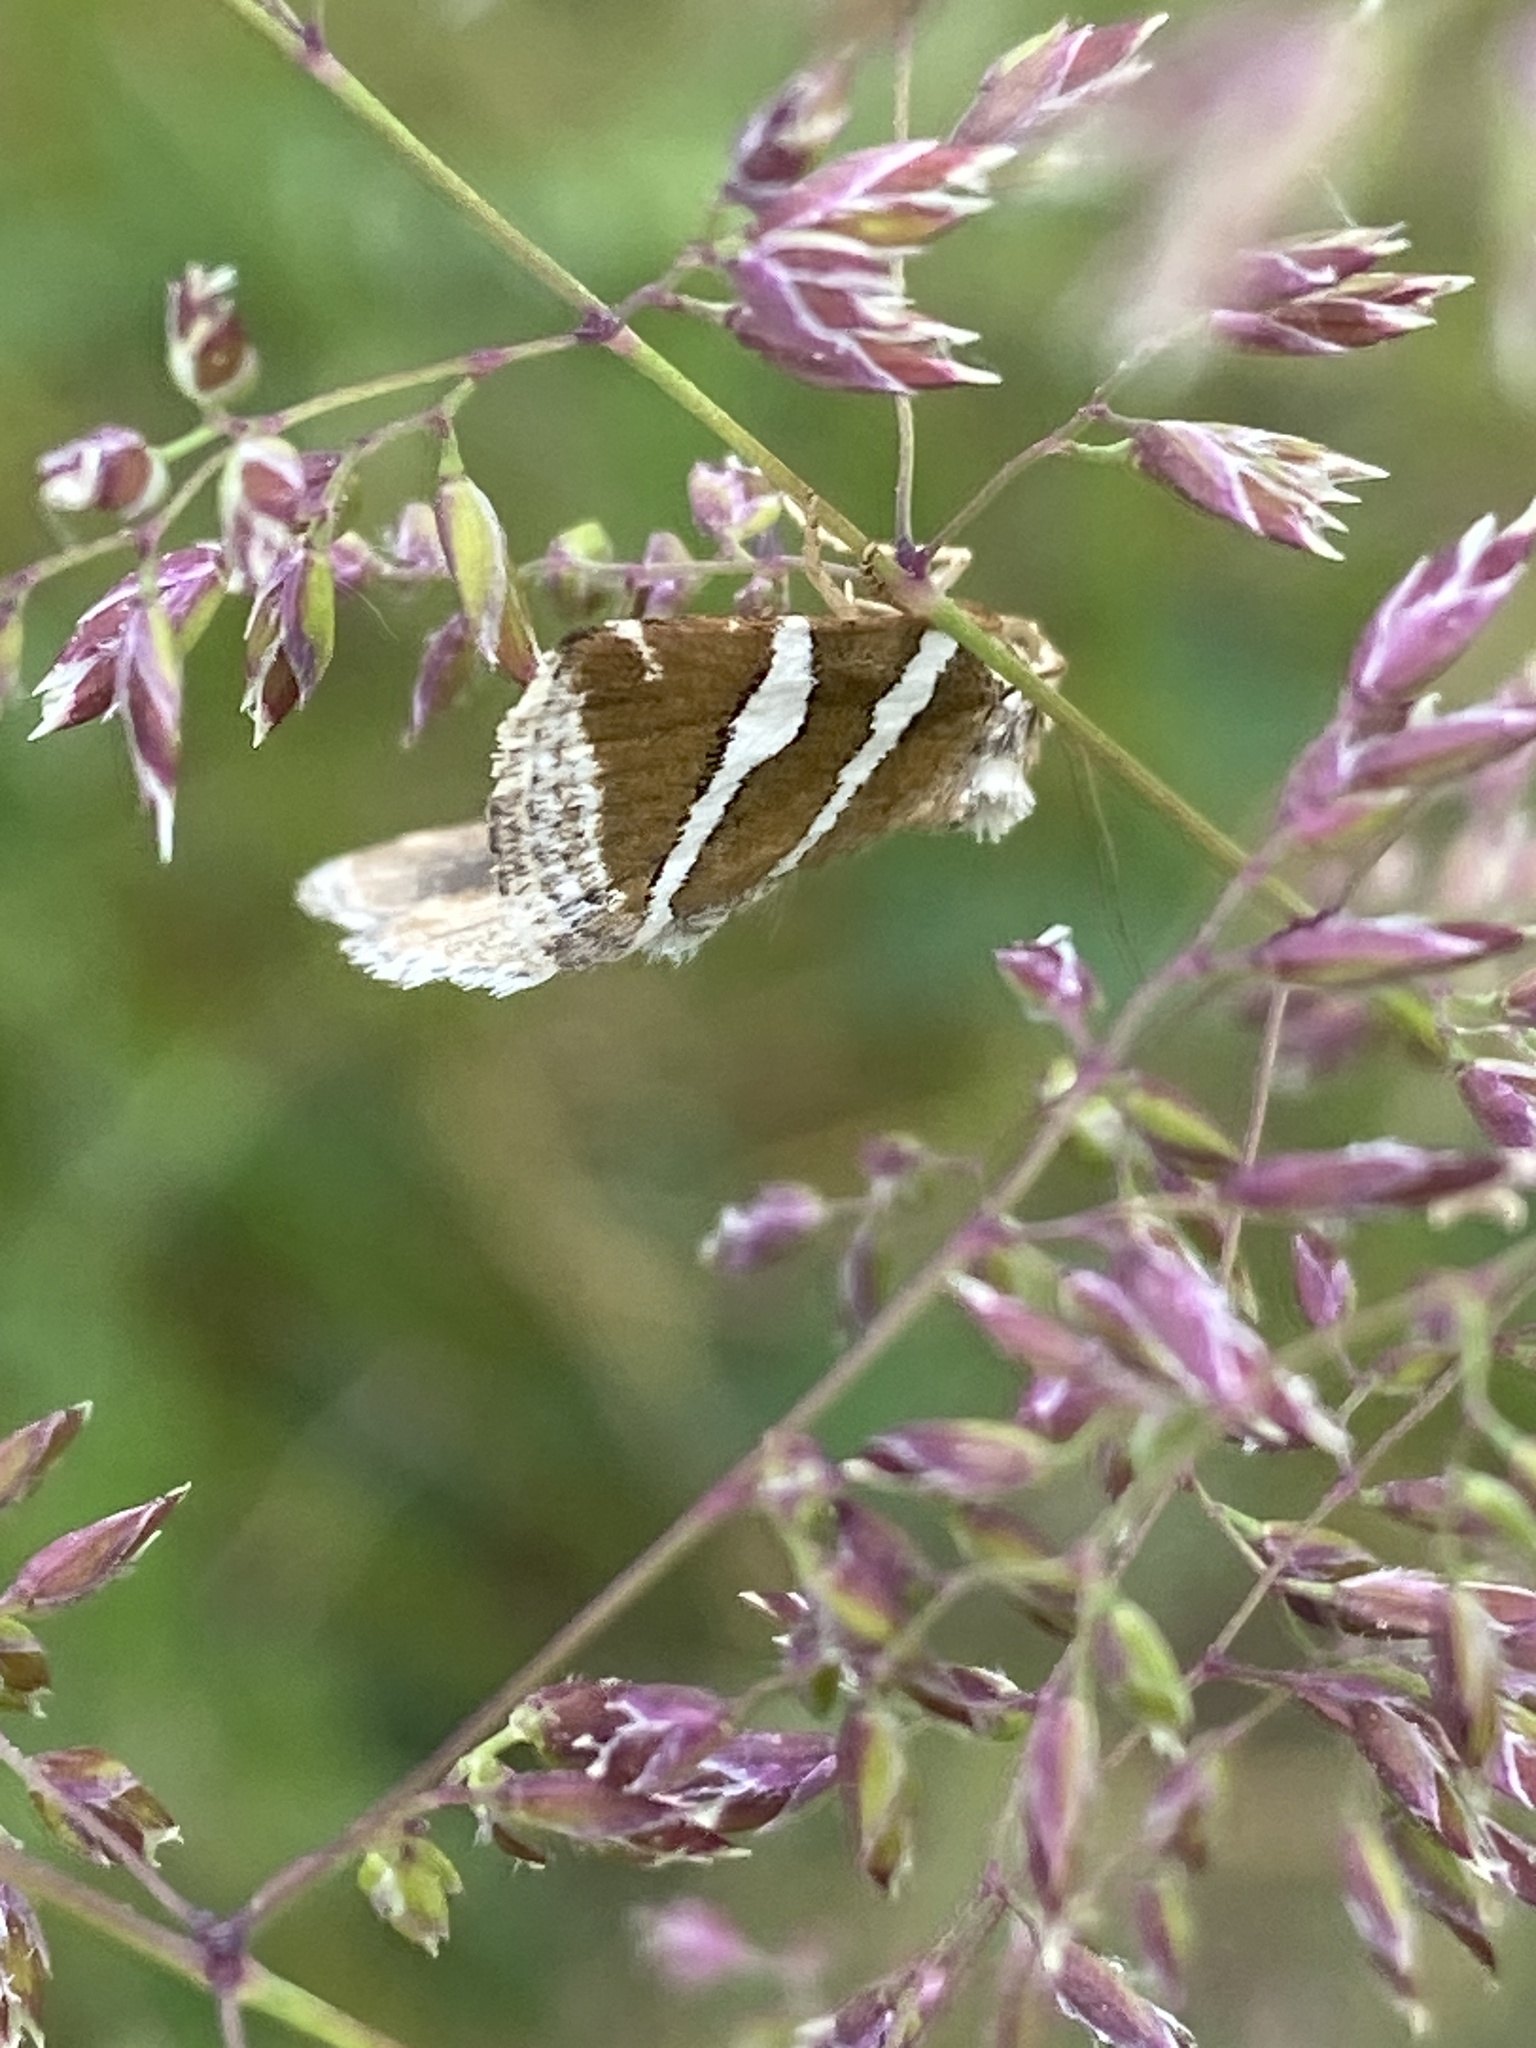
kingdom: Animalia
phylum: Arthropoda
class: Insecta
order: Lepidoptera
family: Noctuidae
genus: Deltote
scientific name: Deltote bankiana
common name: Silver barred
